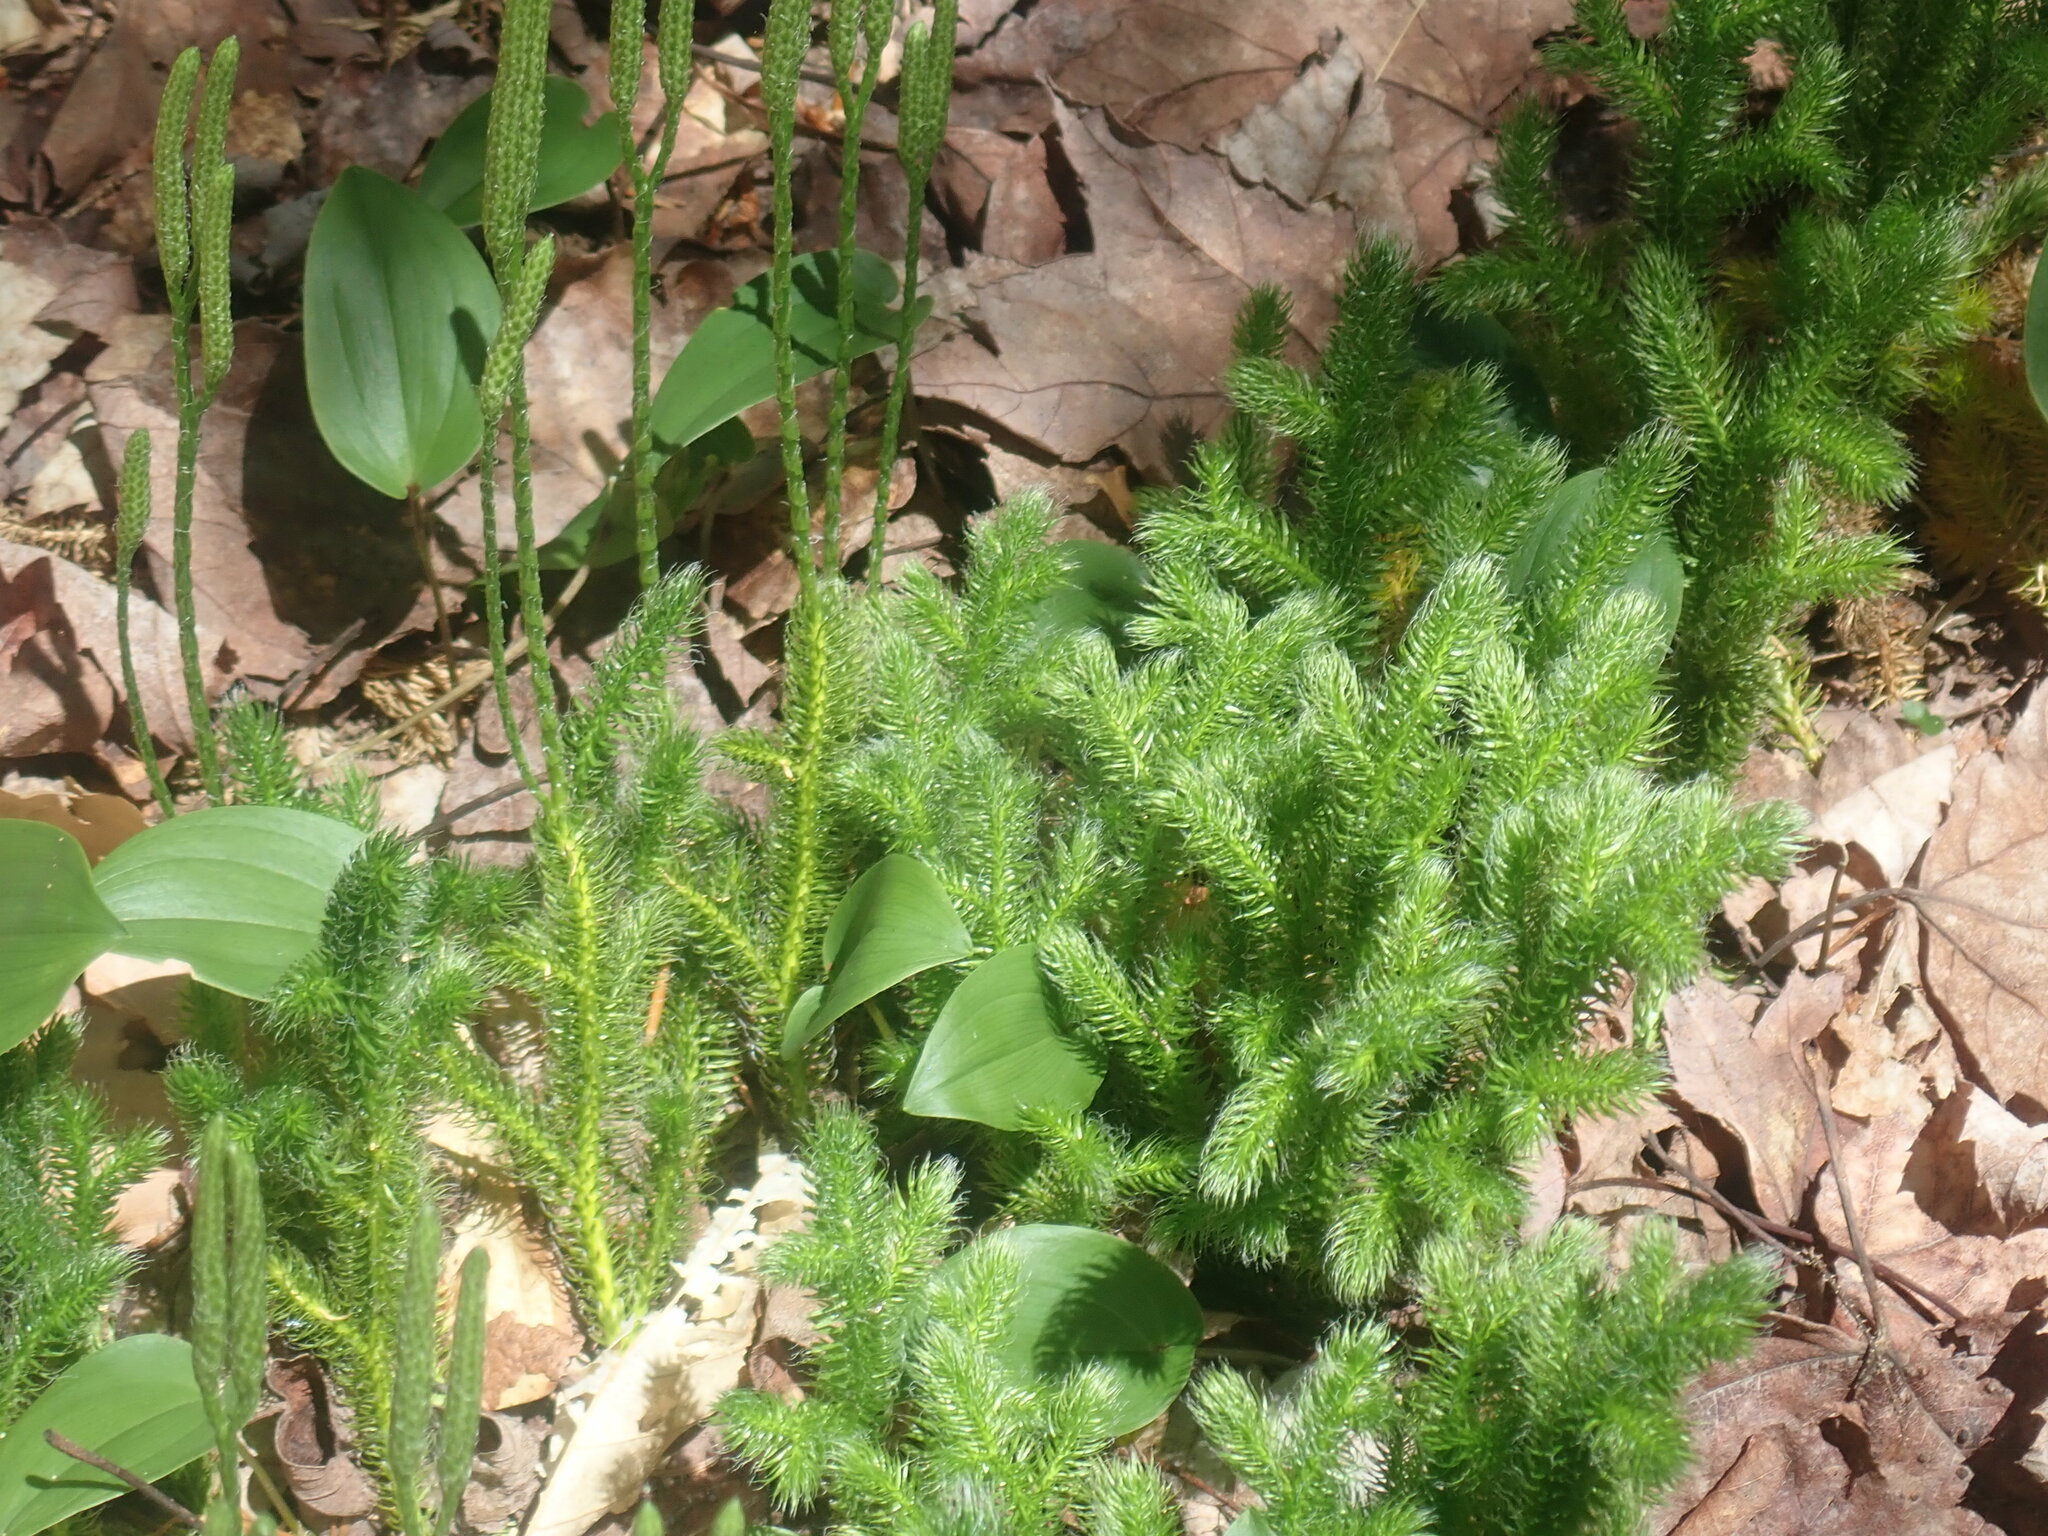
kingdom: Plantae
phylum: Tracheophyta
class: Lycopodiopsida
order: Lycopodiales
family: Lycopodiaceae
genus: Lycopodium
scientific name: Lycopodium clavatum
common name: Stag's-horn clubmoss
